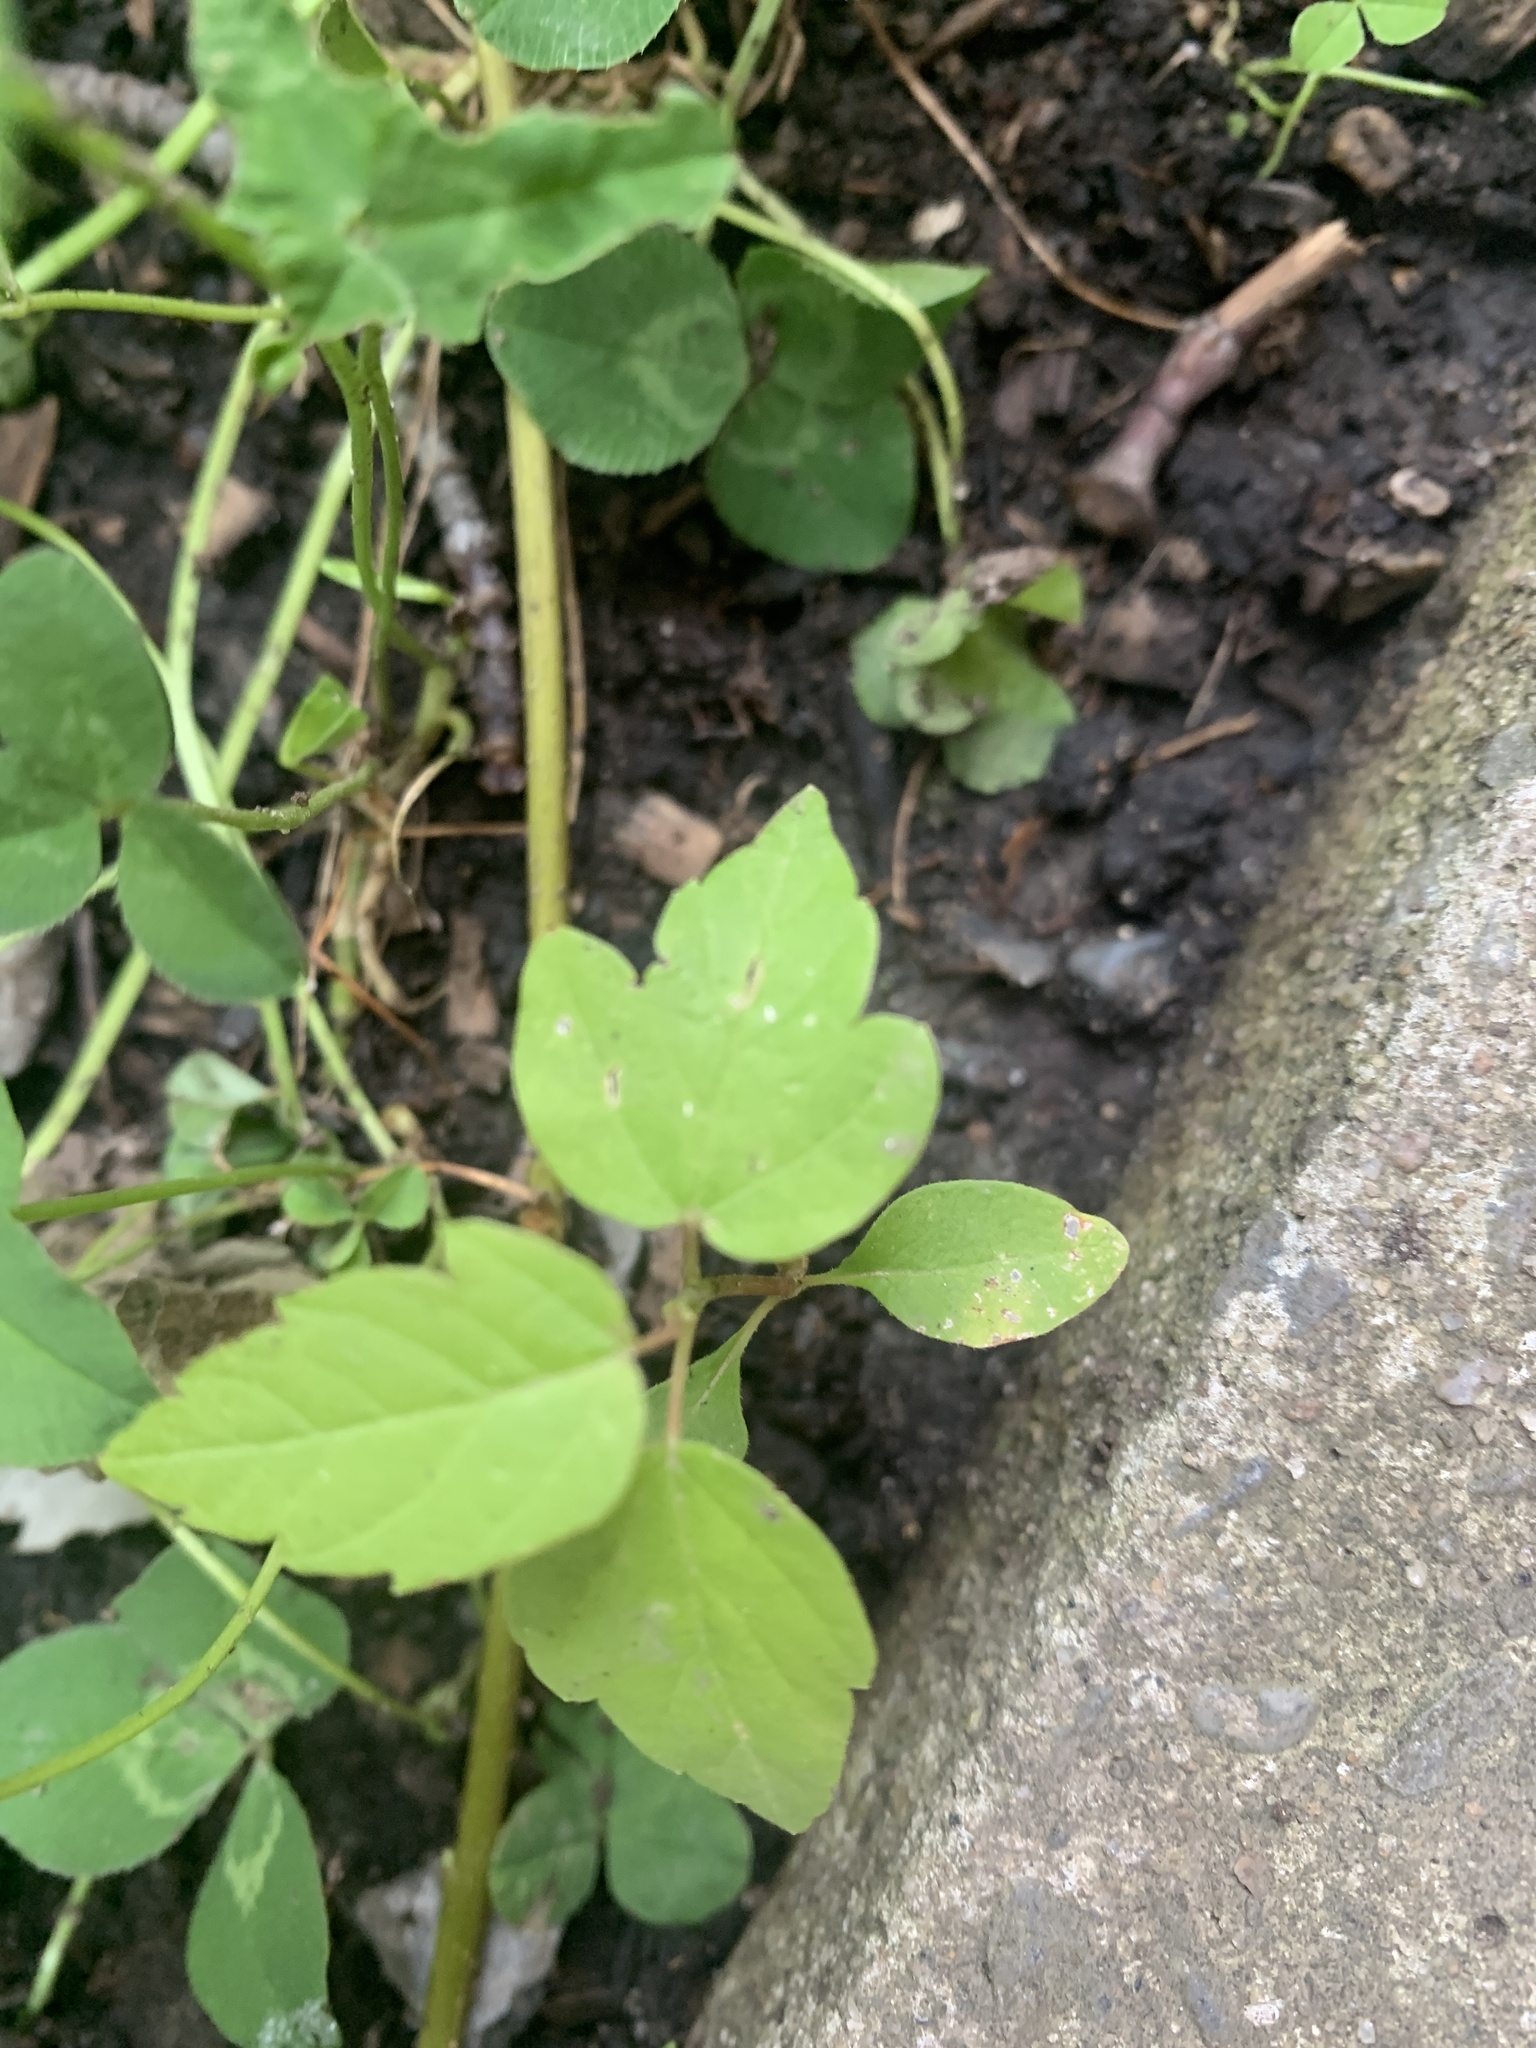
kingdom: Plantae
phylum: Tracheophyta
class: Magnoliopsida
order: Sapindales
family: Sapindaceae
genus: Acer
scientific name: Acer negundo
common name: Ashleaf maple
